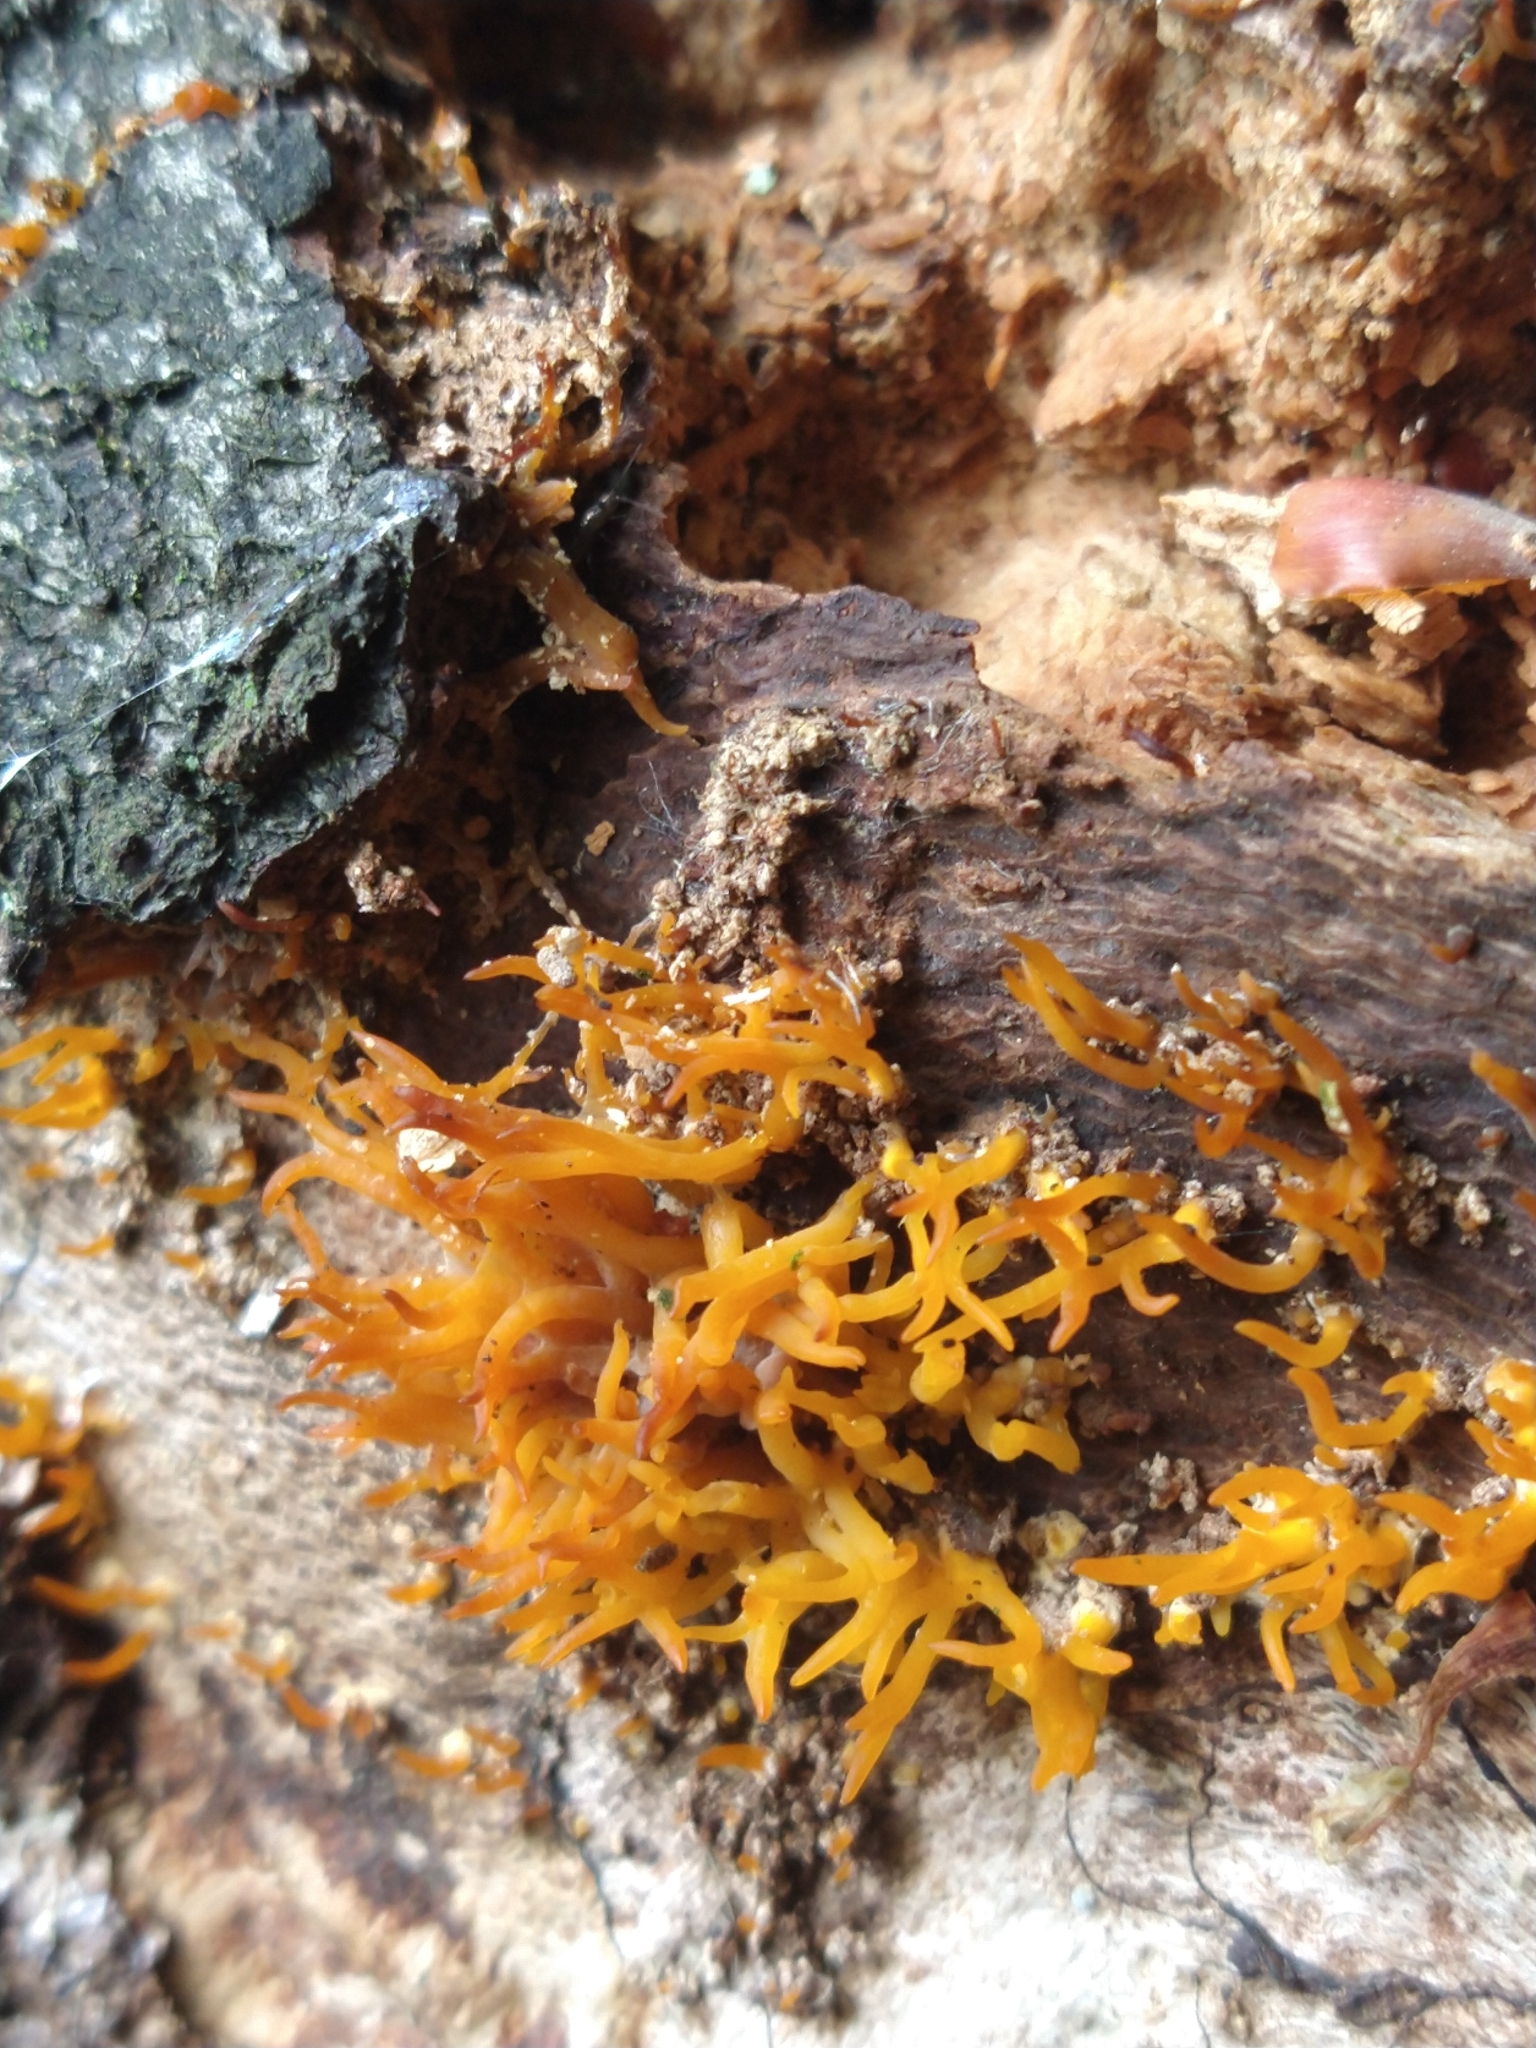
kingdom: Fungi
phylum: Basidiomycota
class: Dacrymycetes
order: Dacrymycetales
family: Dacrymycetaceae
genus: Calocera
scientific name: Calocera cornea
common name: Small stagshorn
